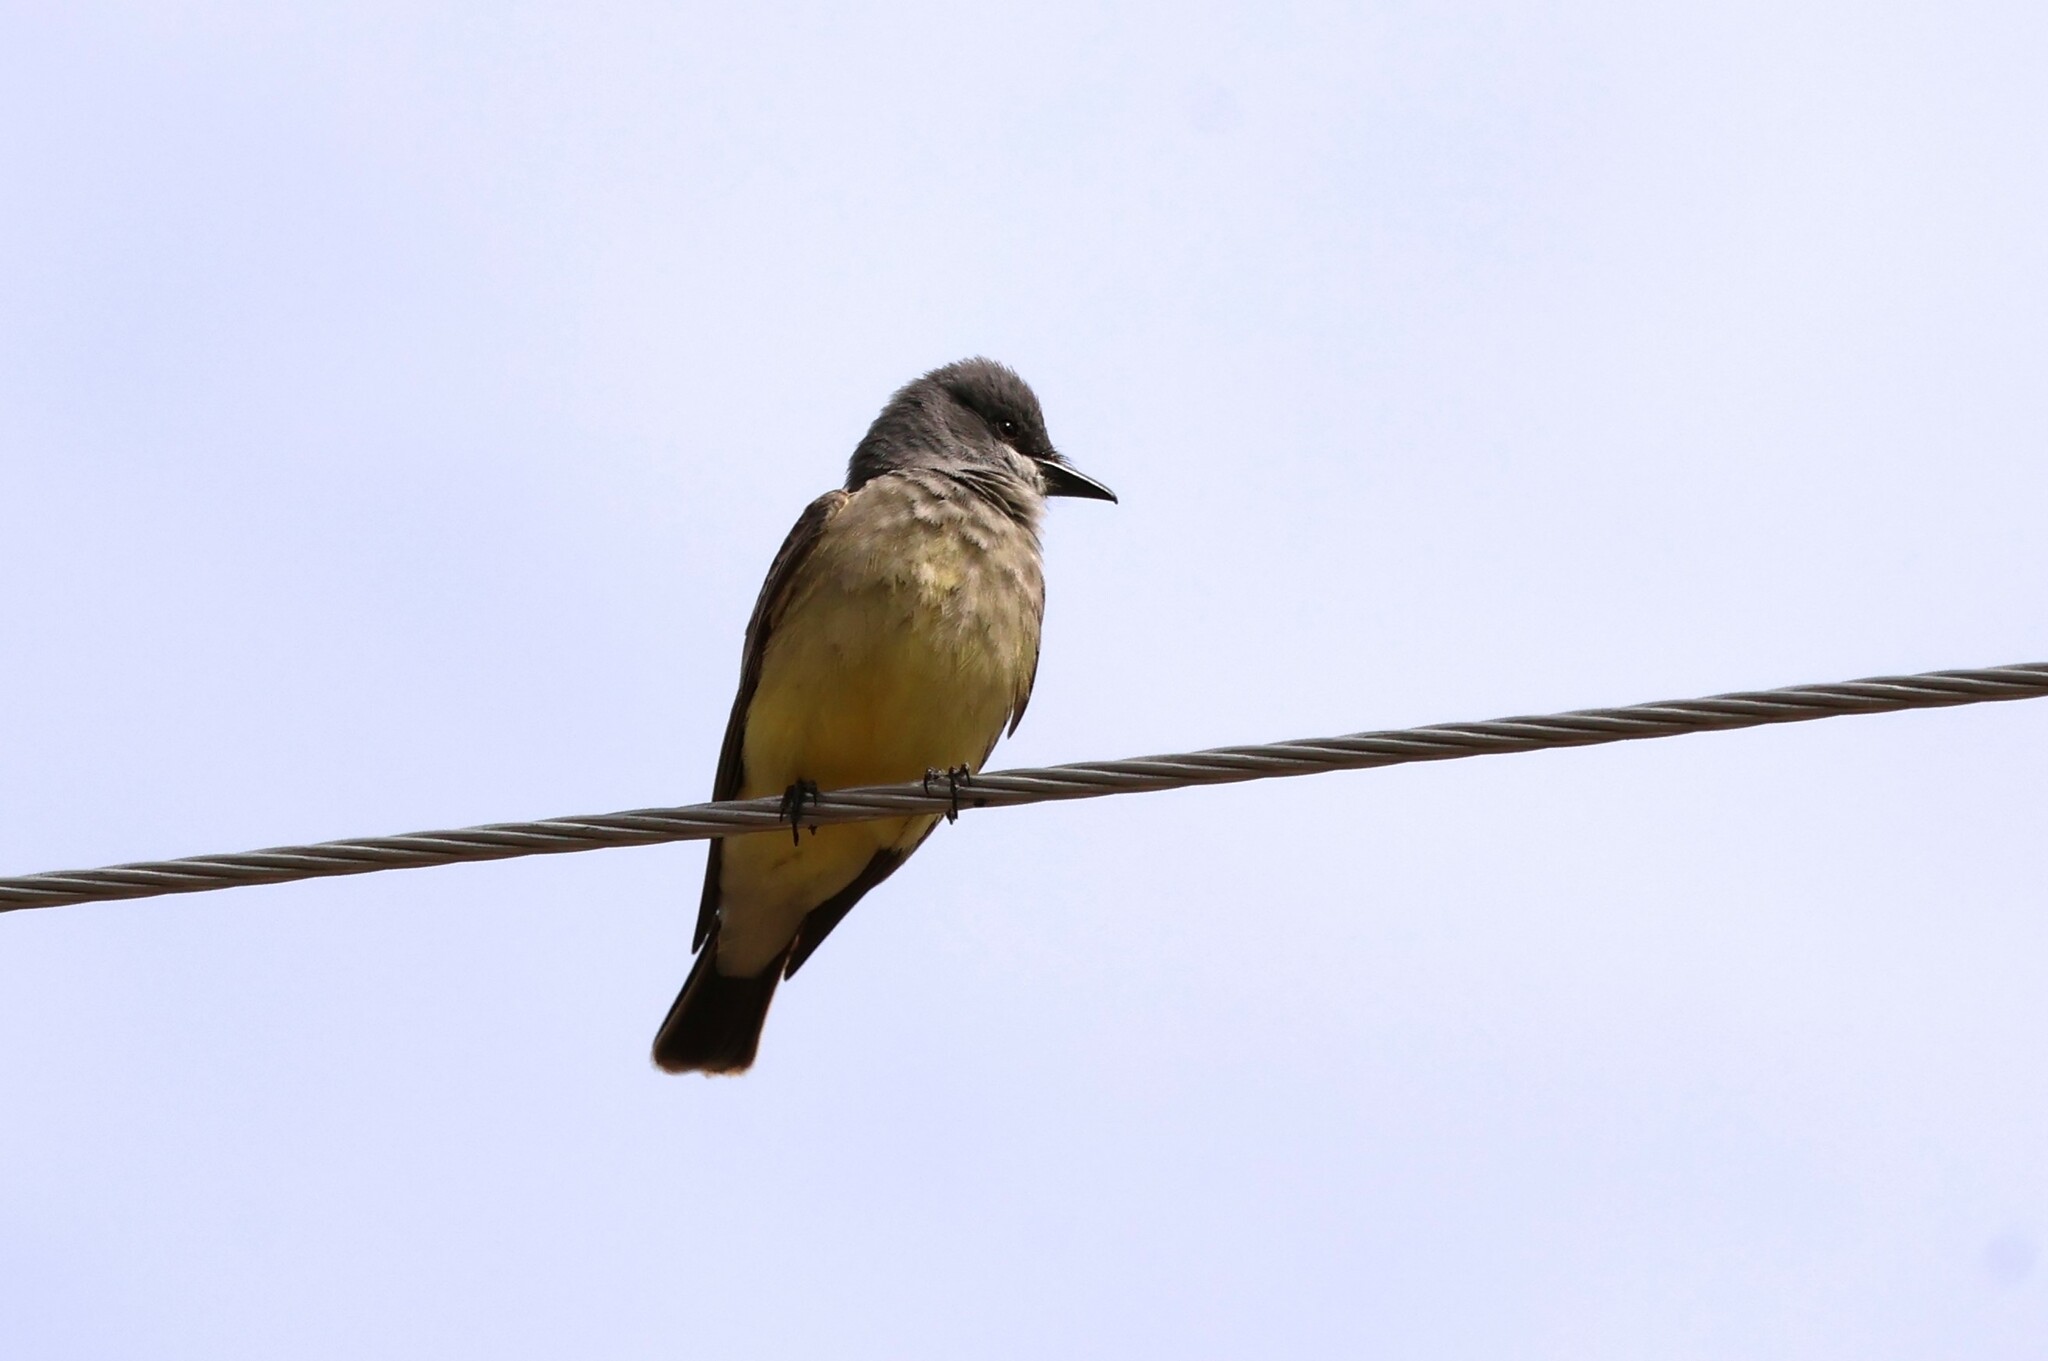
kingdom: Animalia
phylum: Chordata
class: Aves
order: Passeriformes
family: Tyrannidae
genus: Tyrannus
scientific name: Tyrannus vociferans
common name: Cassin's kingbird
